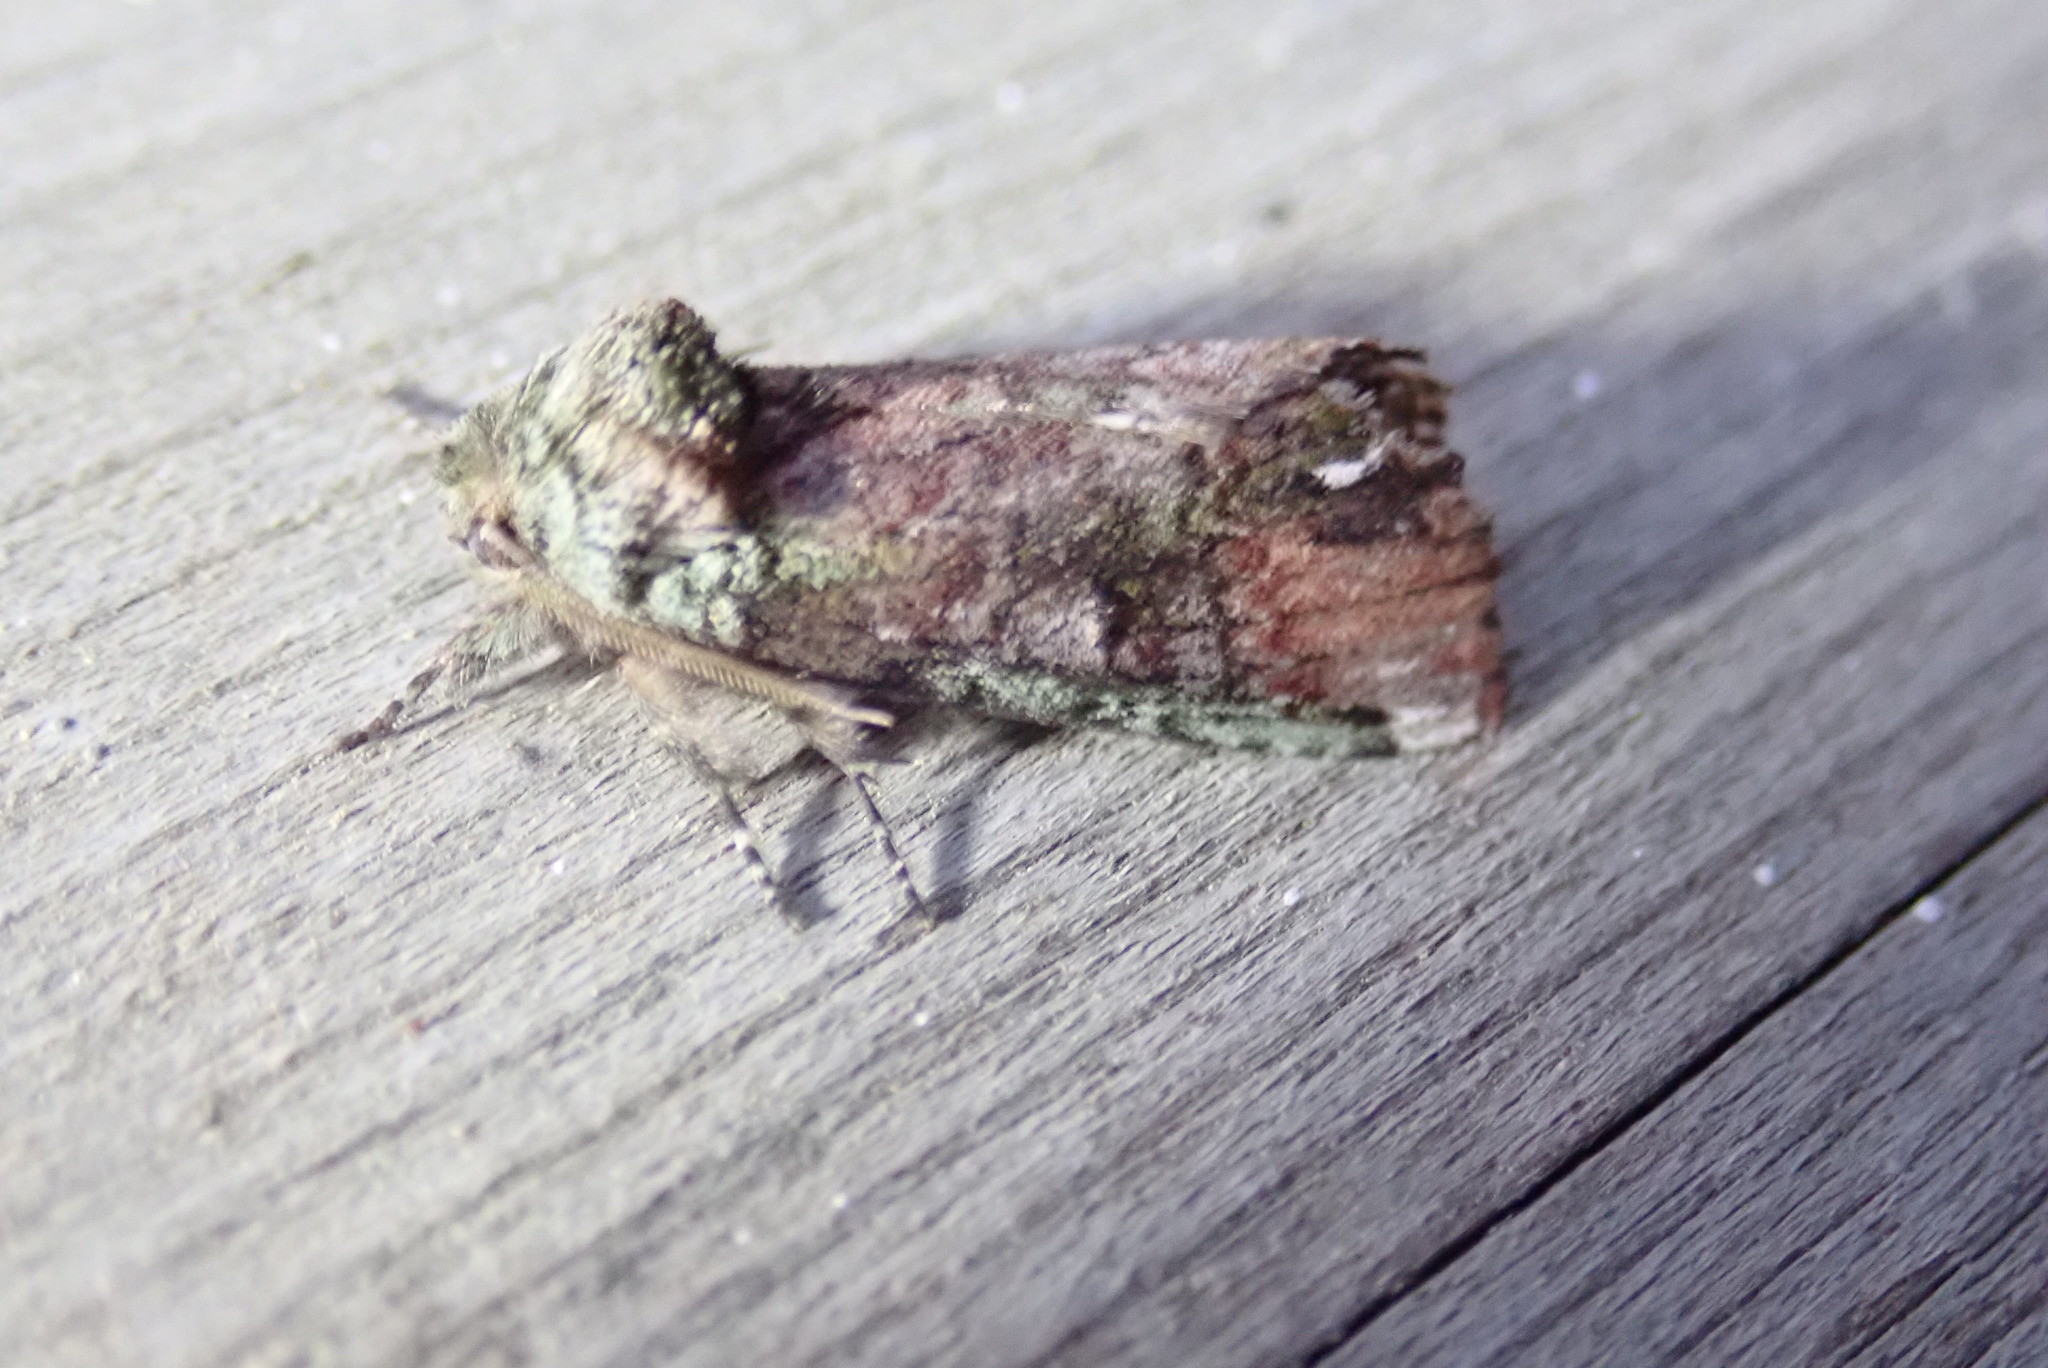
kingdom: Animalia
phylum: Arthropoda
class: Insecta
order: Lepidoptera
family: Notodontidae
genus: Schizura
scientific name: Schizura
